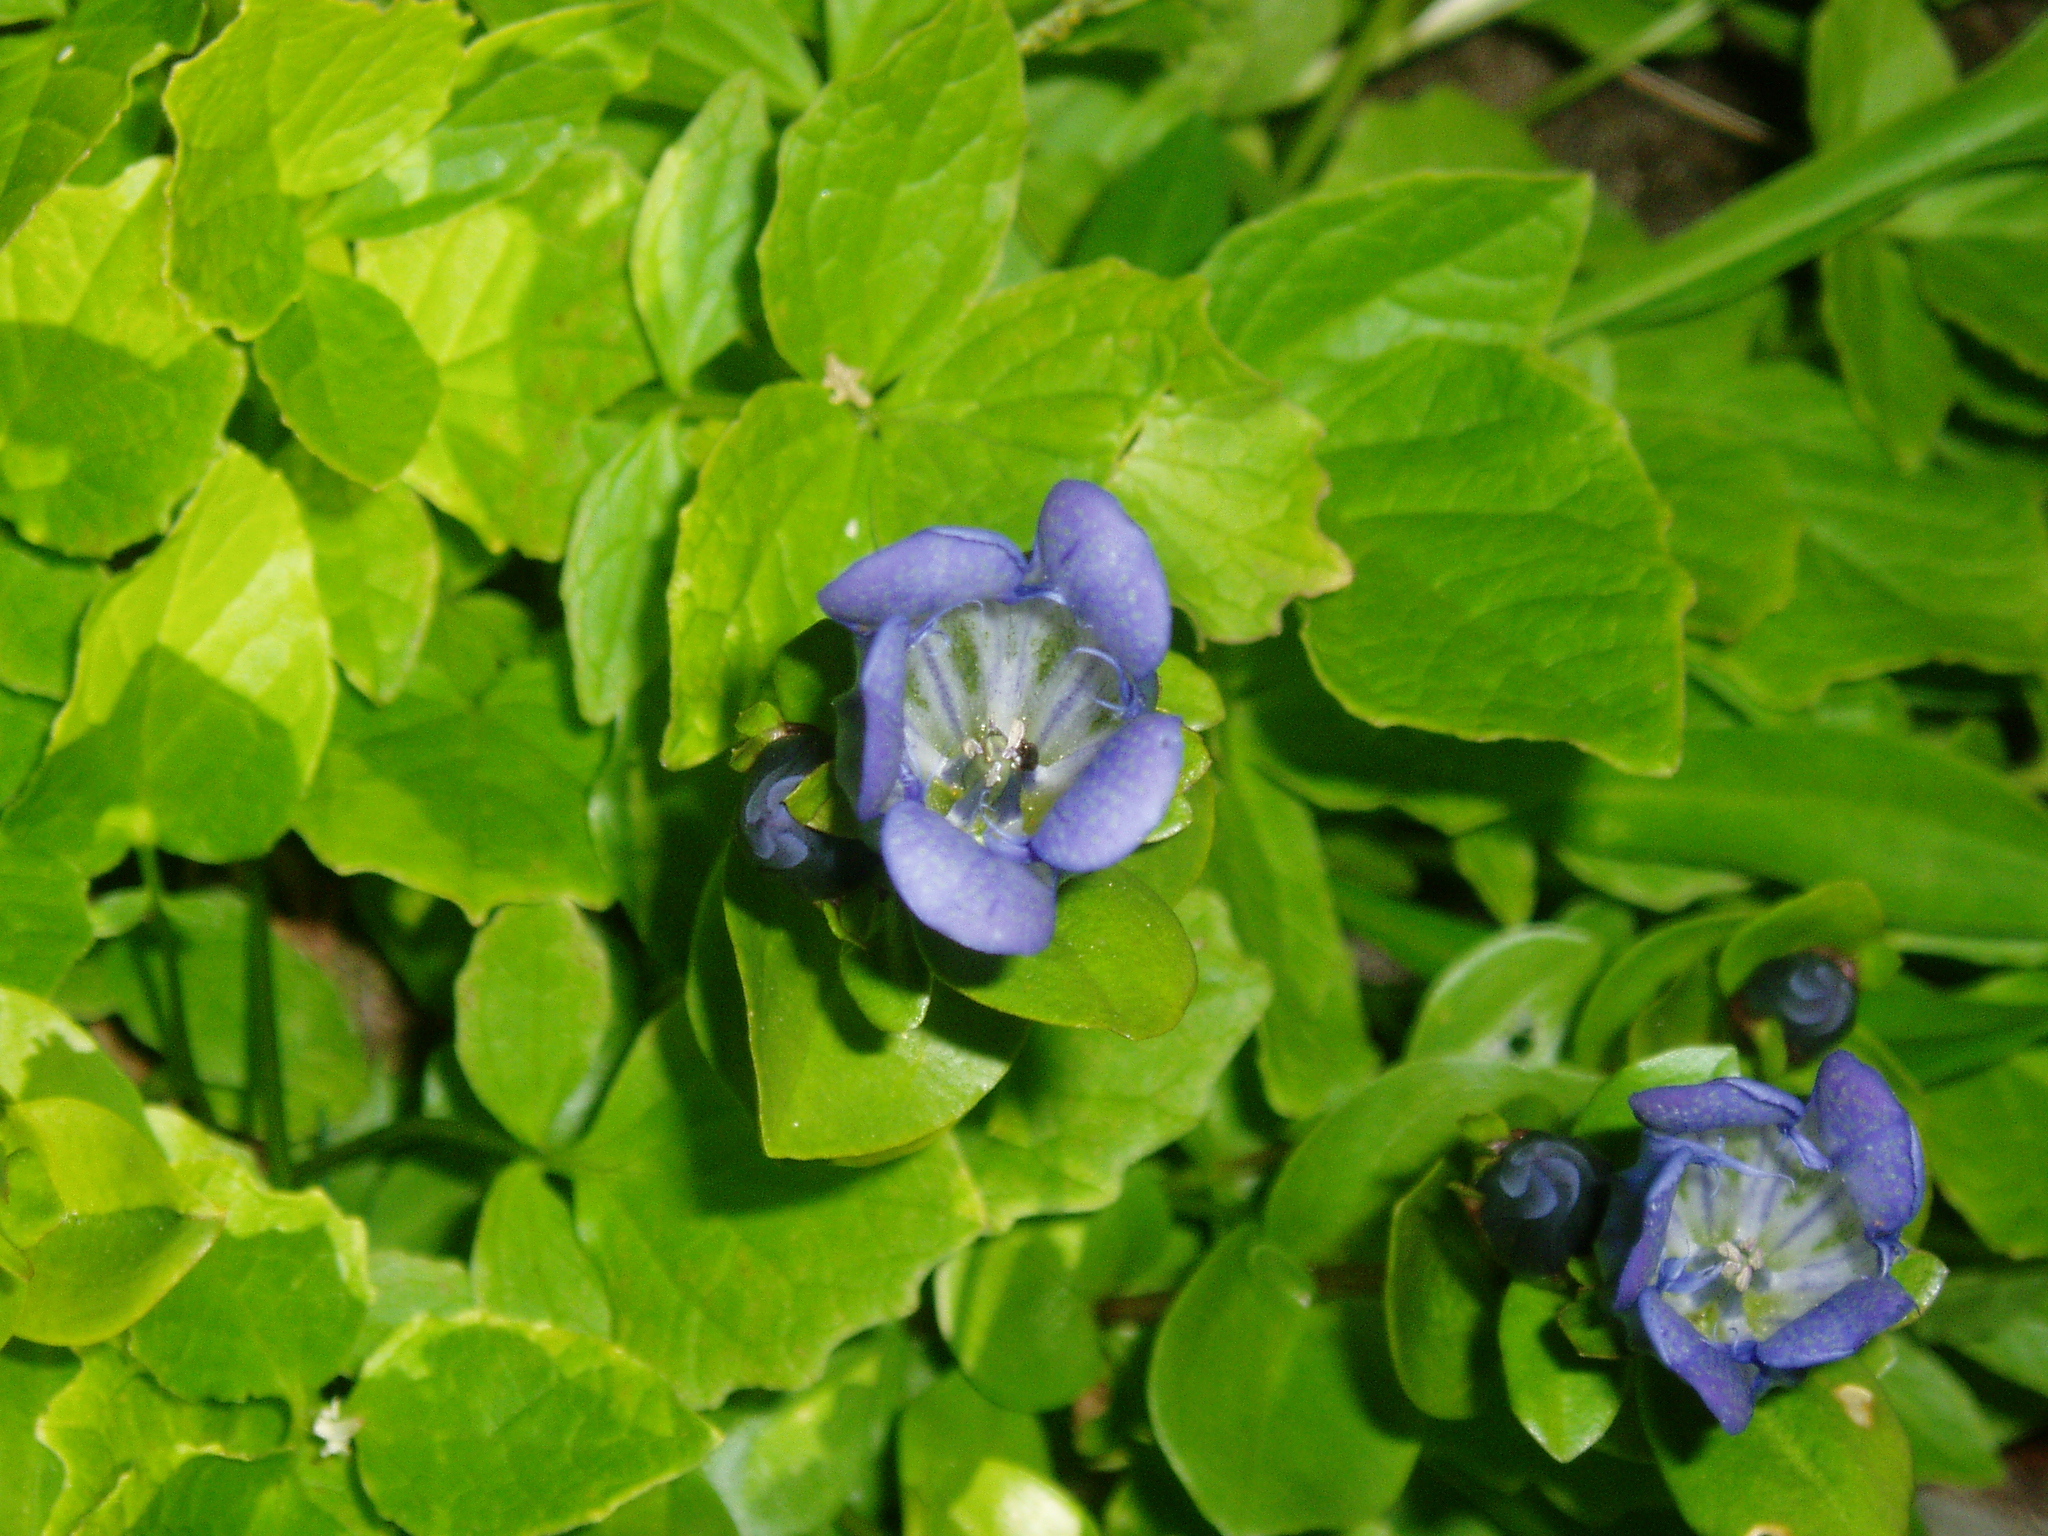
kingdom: Plantae
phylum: Tracheophyta
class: Magnoliopsida
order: Gentianales
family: Gentianaceae
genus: Gentiana
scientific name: Gentiana calycosa
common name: Rainier pleated gentian
